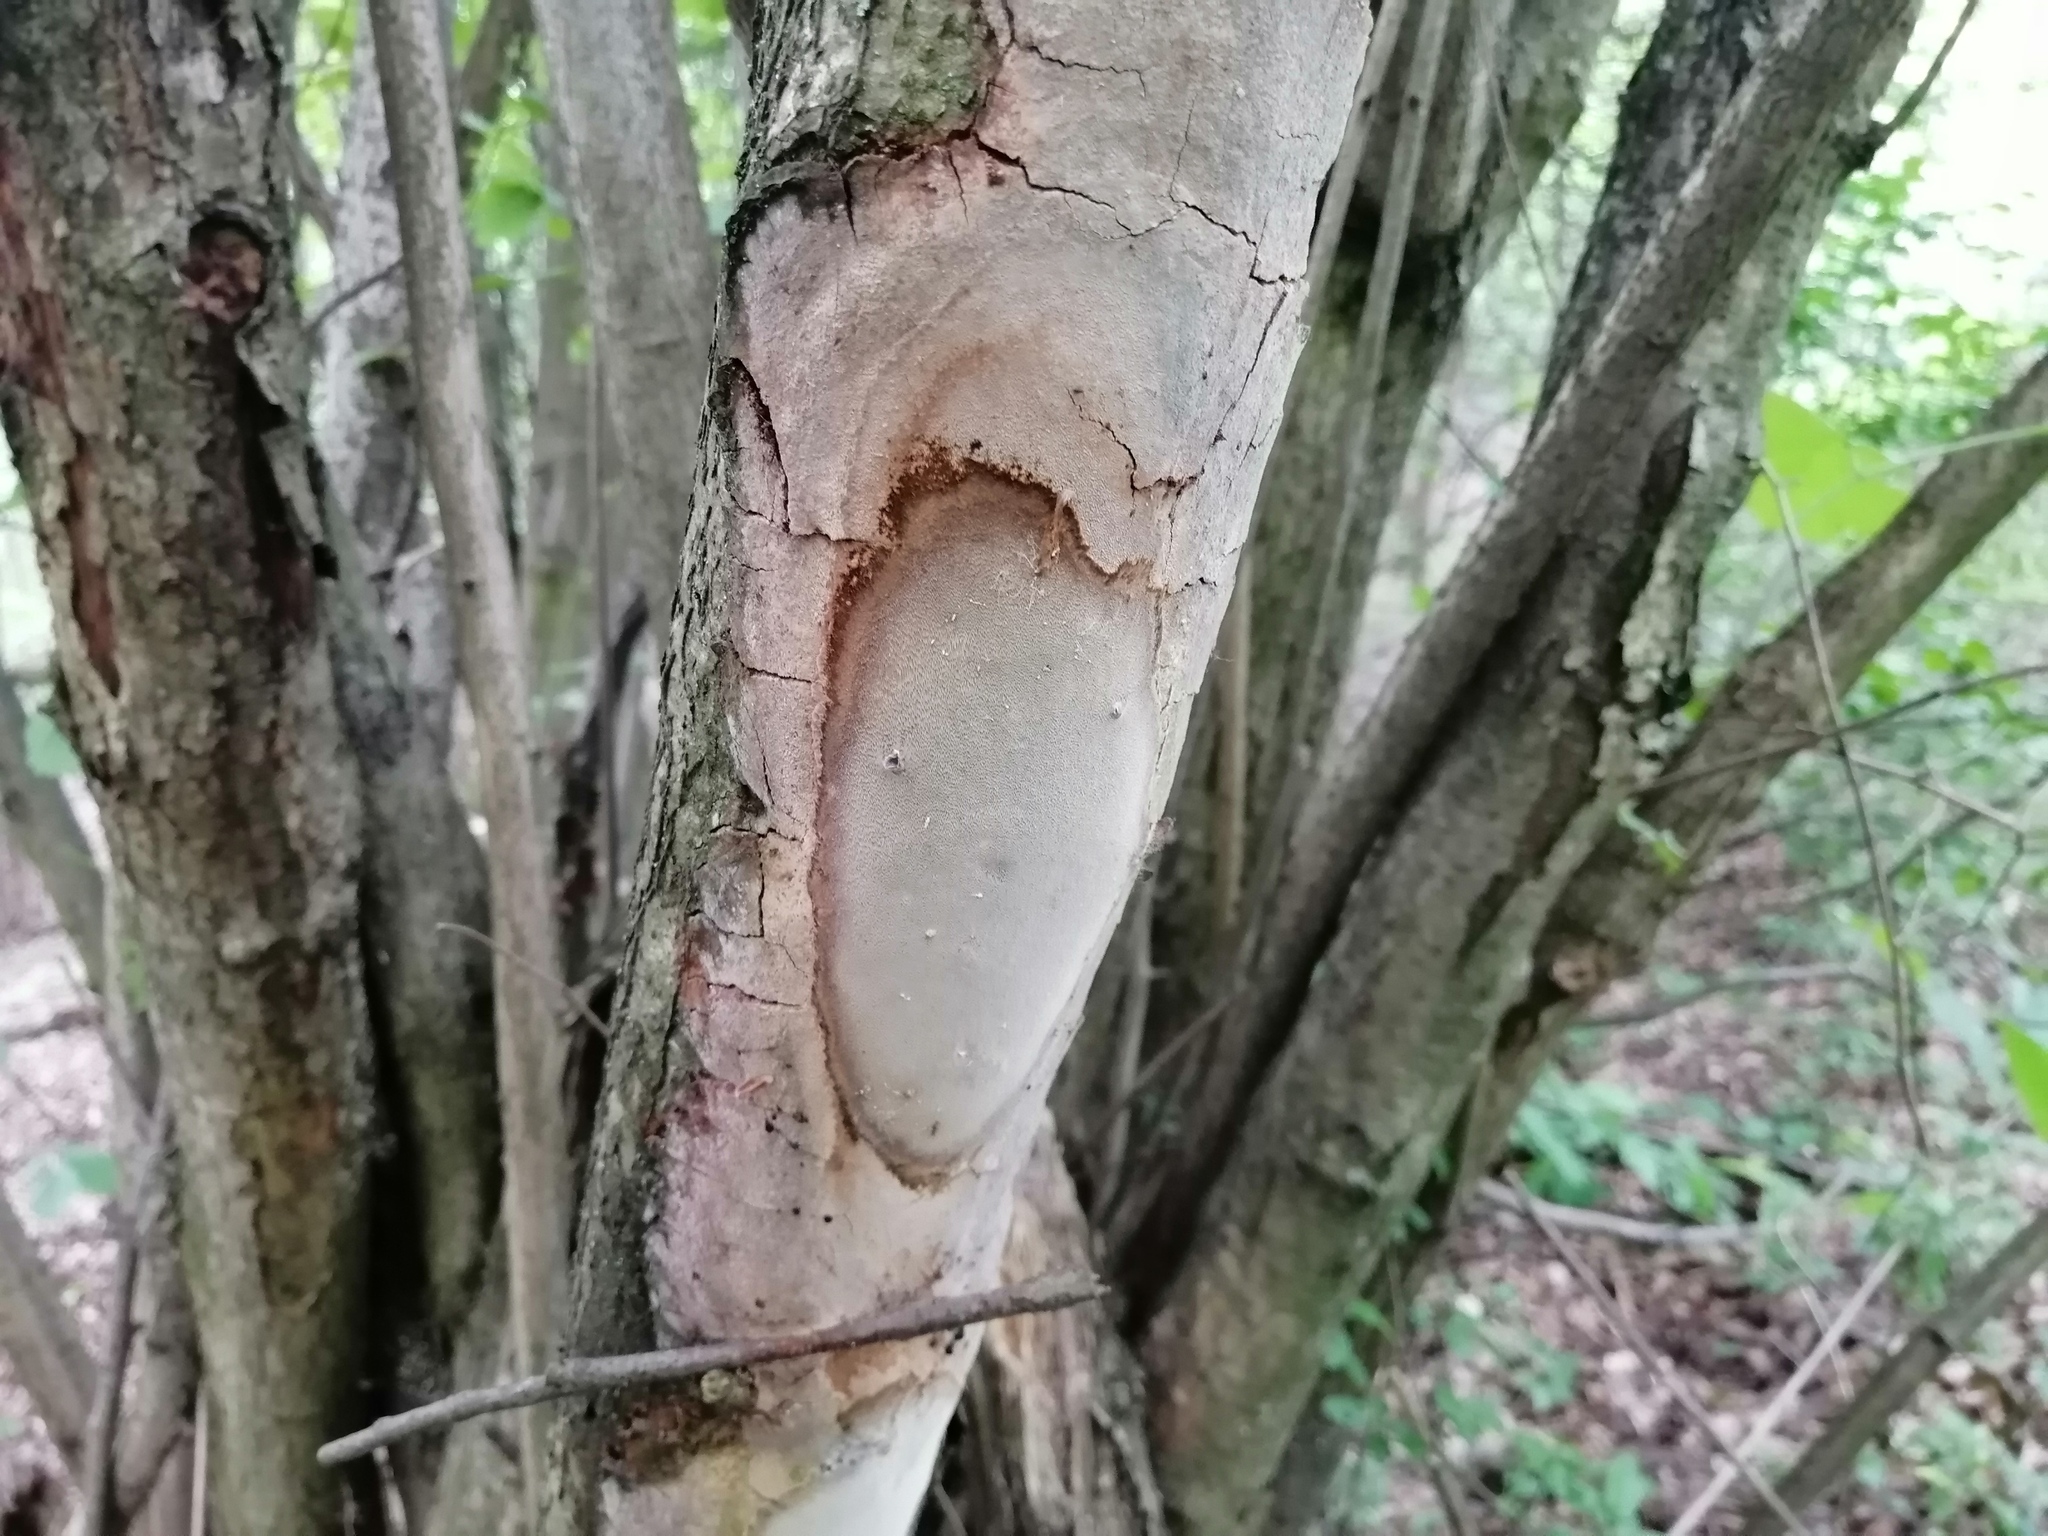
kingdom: Fungi
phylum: Basidiomycota
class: Agaricomycetes
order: Hymenochaetales
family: Hymenochaetaceae
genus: Fomitiporia
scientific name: Fomitiporia punctata
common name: Elbowpatch crust
